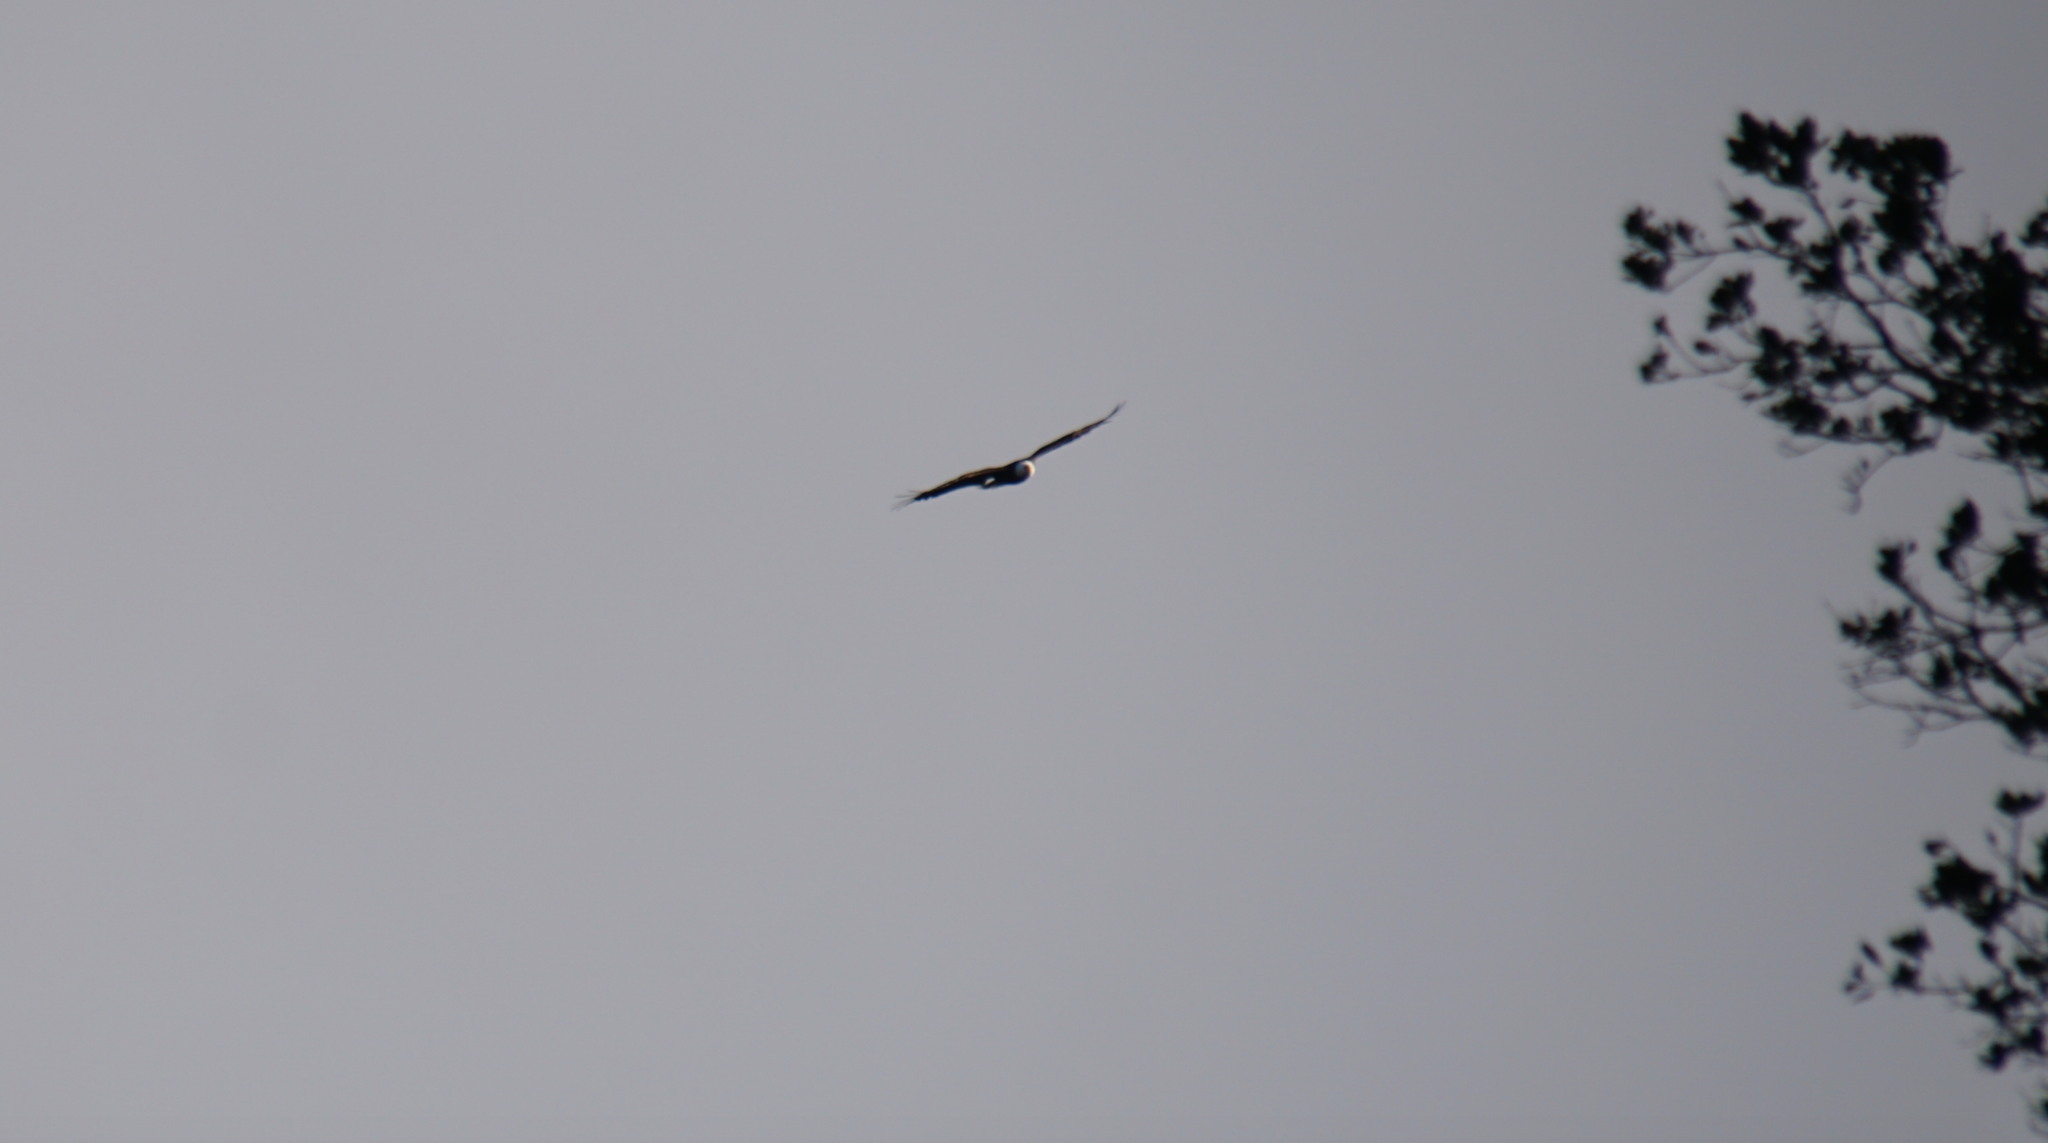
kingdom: Animalia
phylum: Chordata
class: Aves
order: Accipitriformes
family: Accipitridae
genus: Haliaeetus
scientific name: Haliaeetus leucocephalus
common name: Bald eagle
